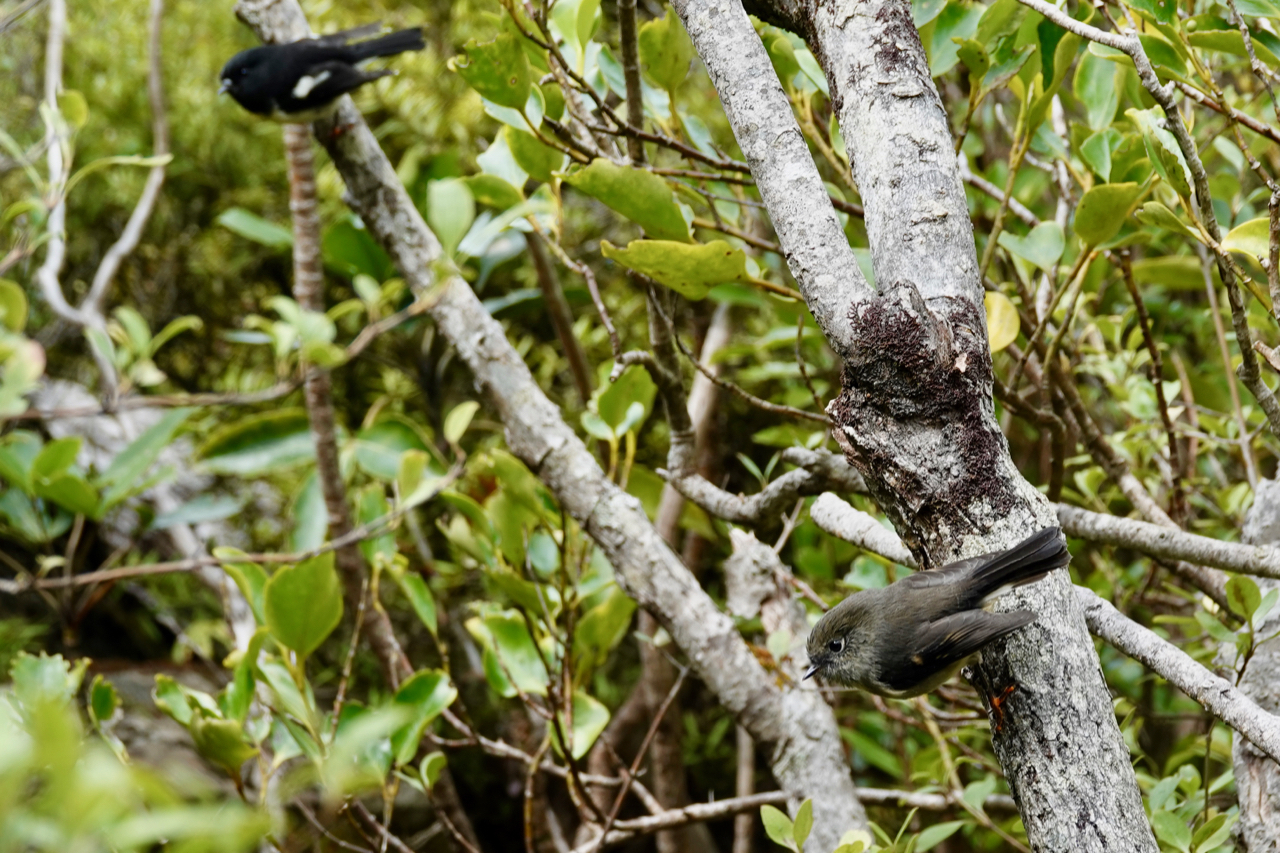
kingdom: Animalia
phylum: Chordata
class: Aves
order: Passeriformes
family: Petroicidae
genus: Petroica
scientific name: Petroica macrocephala
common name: Tomtit
